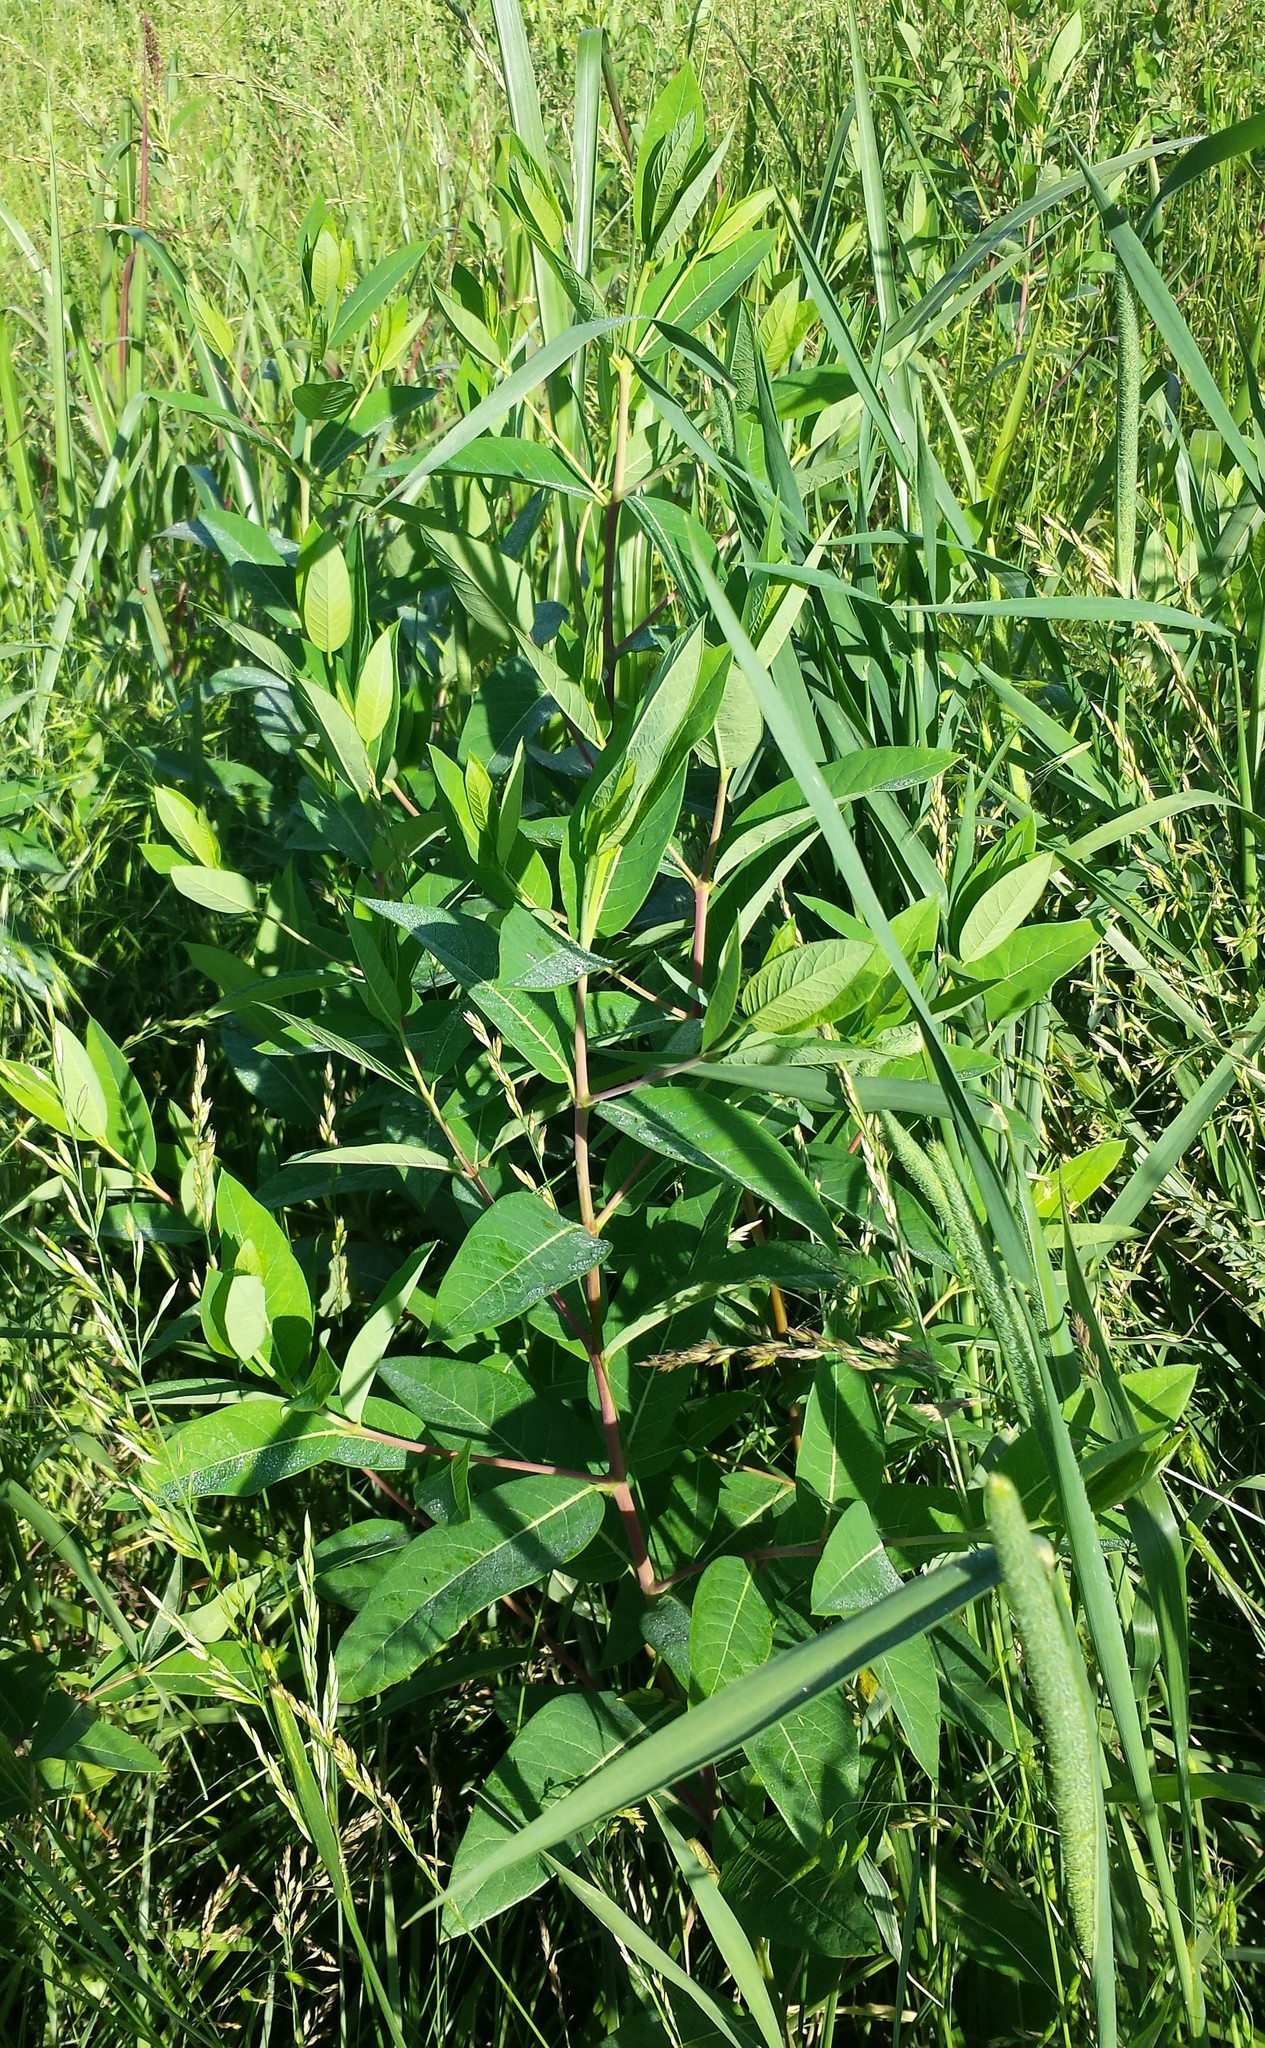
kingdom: Plantae
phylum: Tracheophyta
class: Magnoliopsida
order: Gentianales
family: Apocynaceae
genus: Apocynum
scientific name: Apocynum cannabinum
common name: Hemp dogbane
